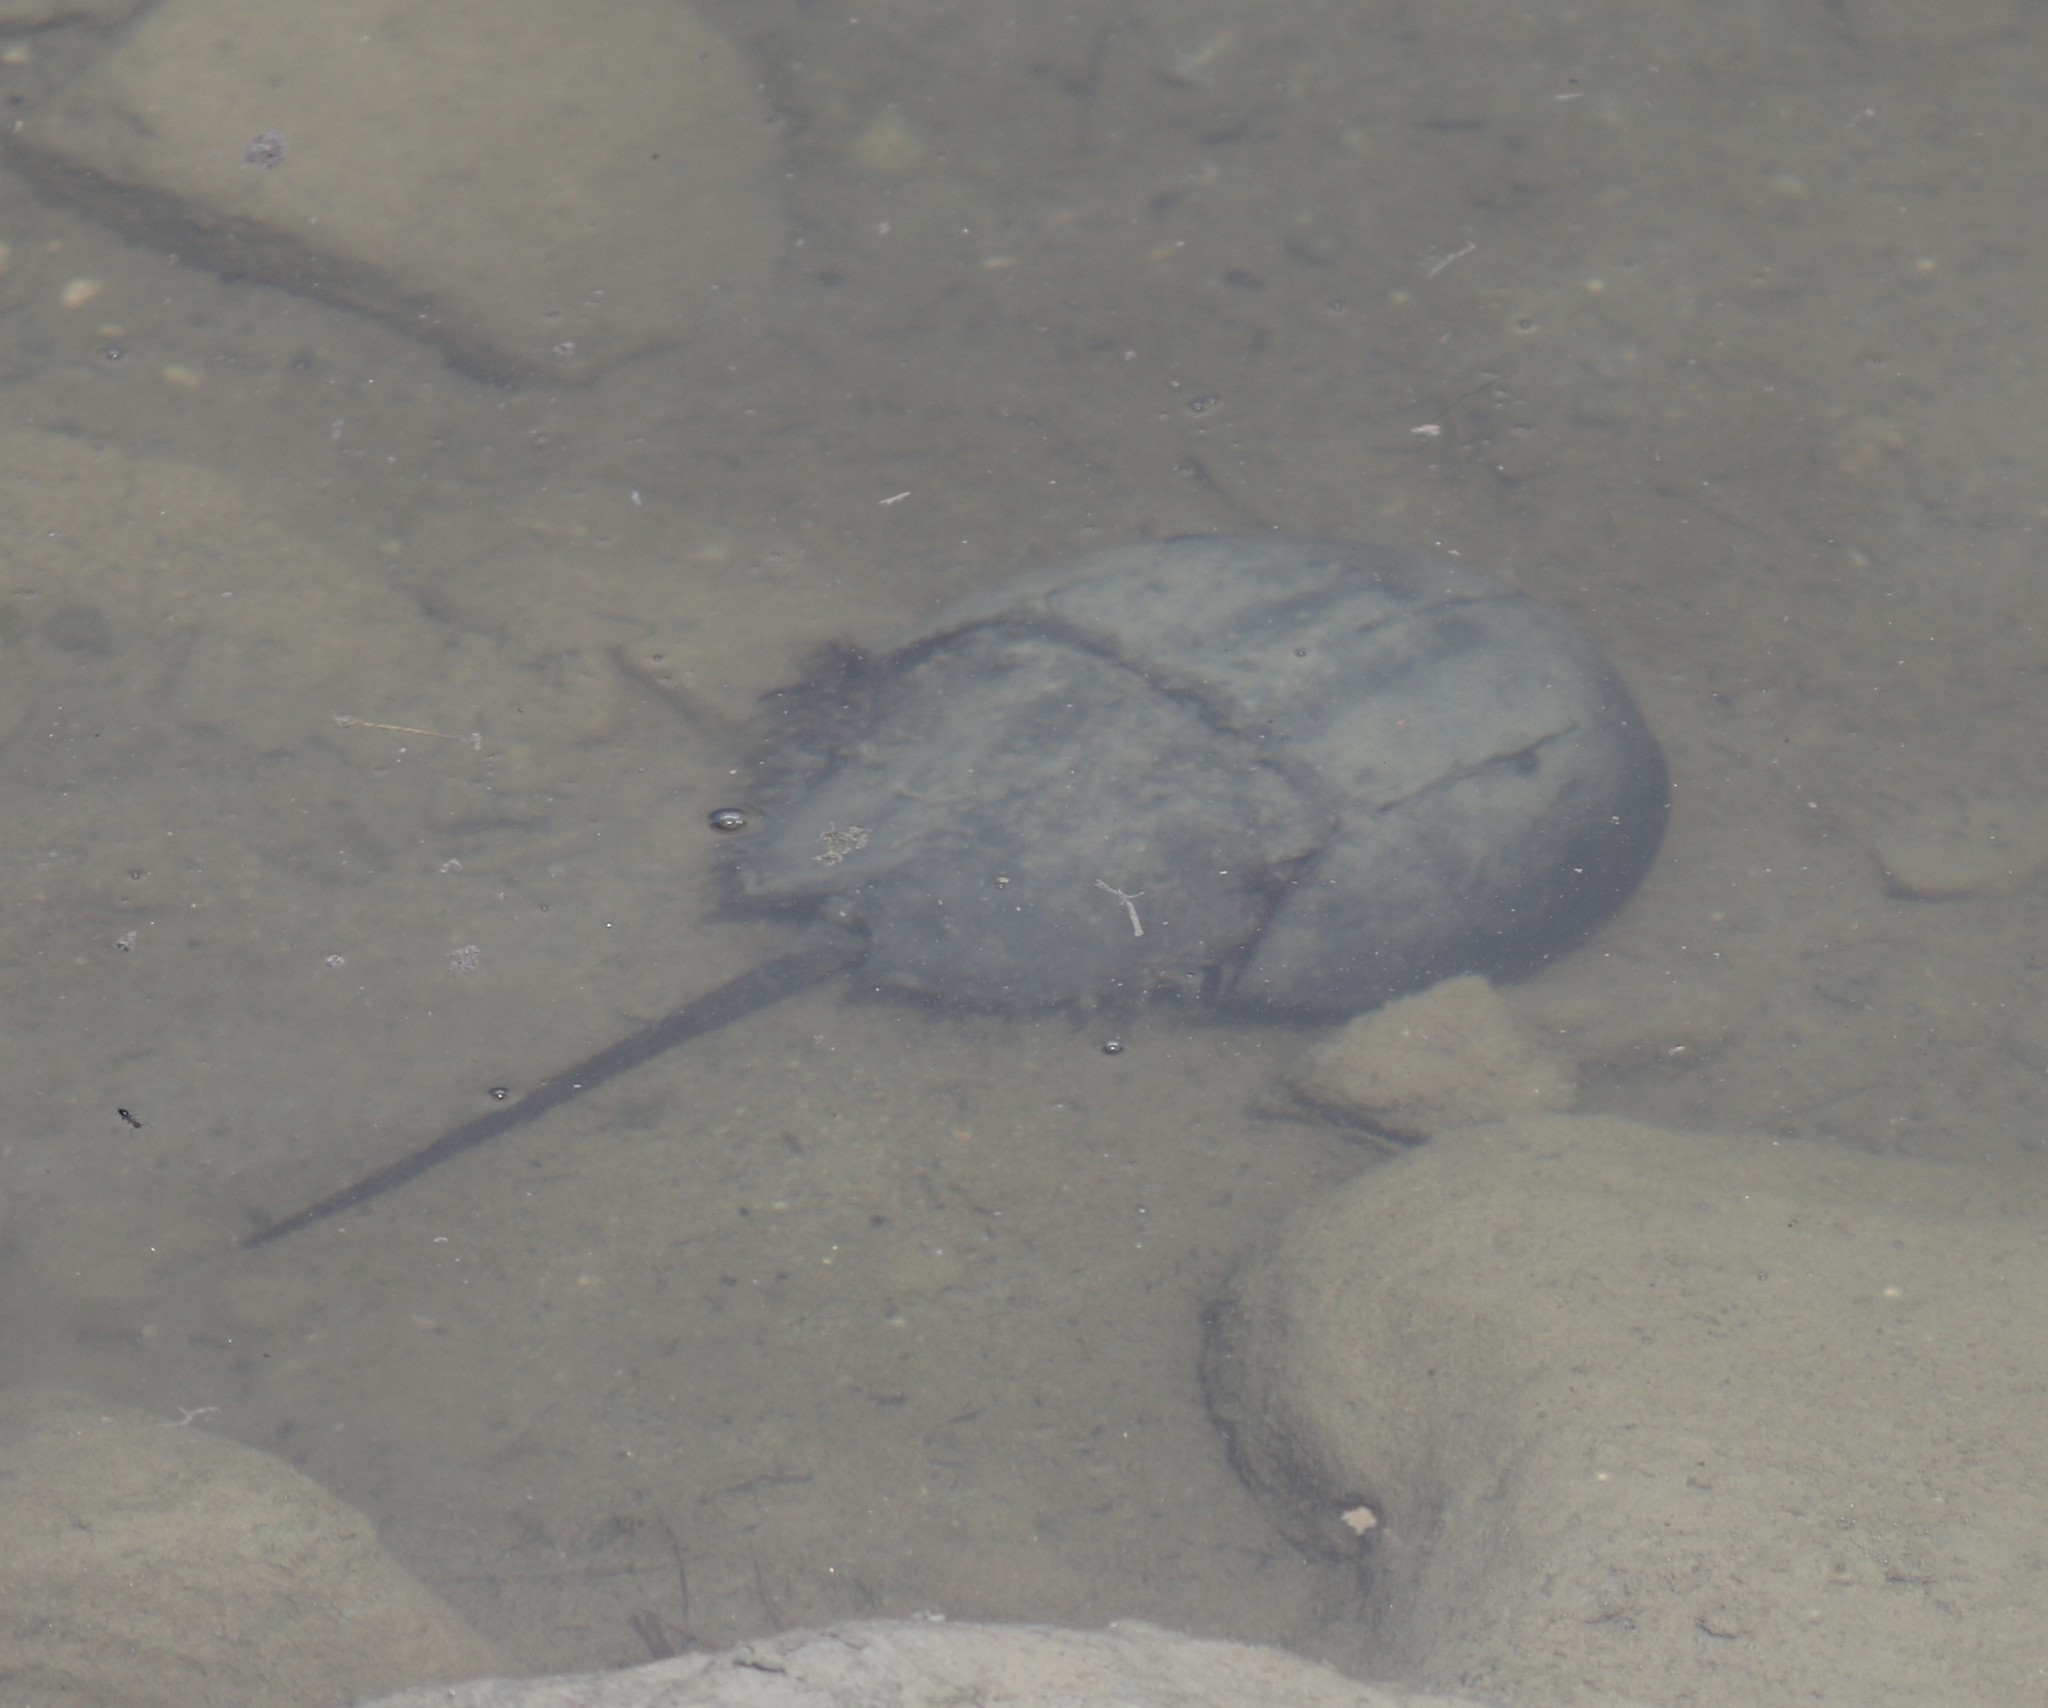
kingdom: Animalia
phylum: Arthropoda
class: Merostomata
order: Xiphosurida
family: Limulidae
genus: Limulus
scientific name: Limulus polyphemus
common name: Horseshoe crab
